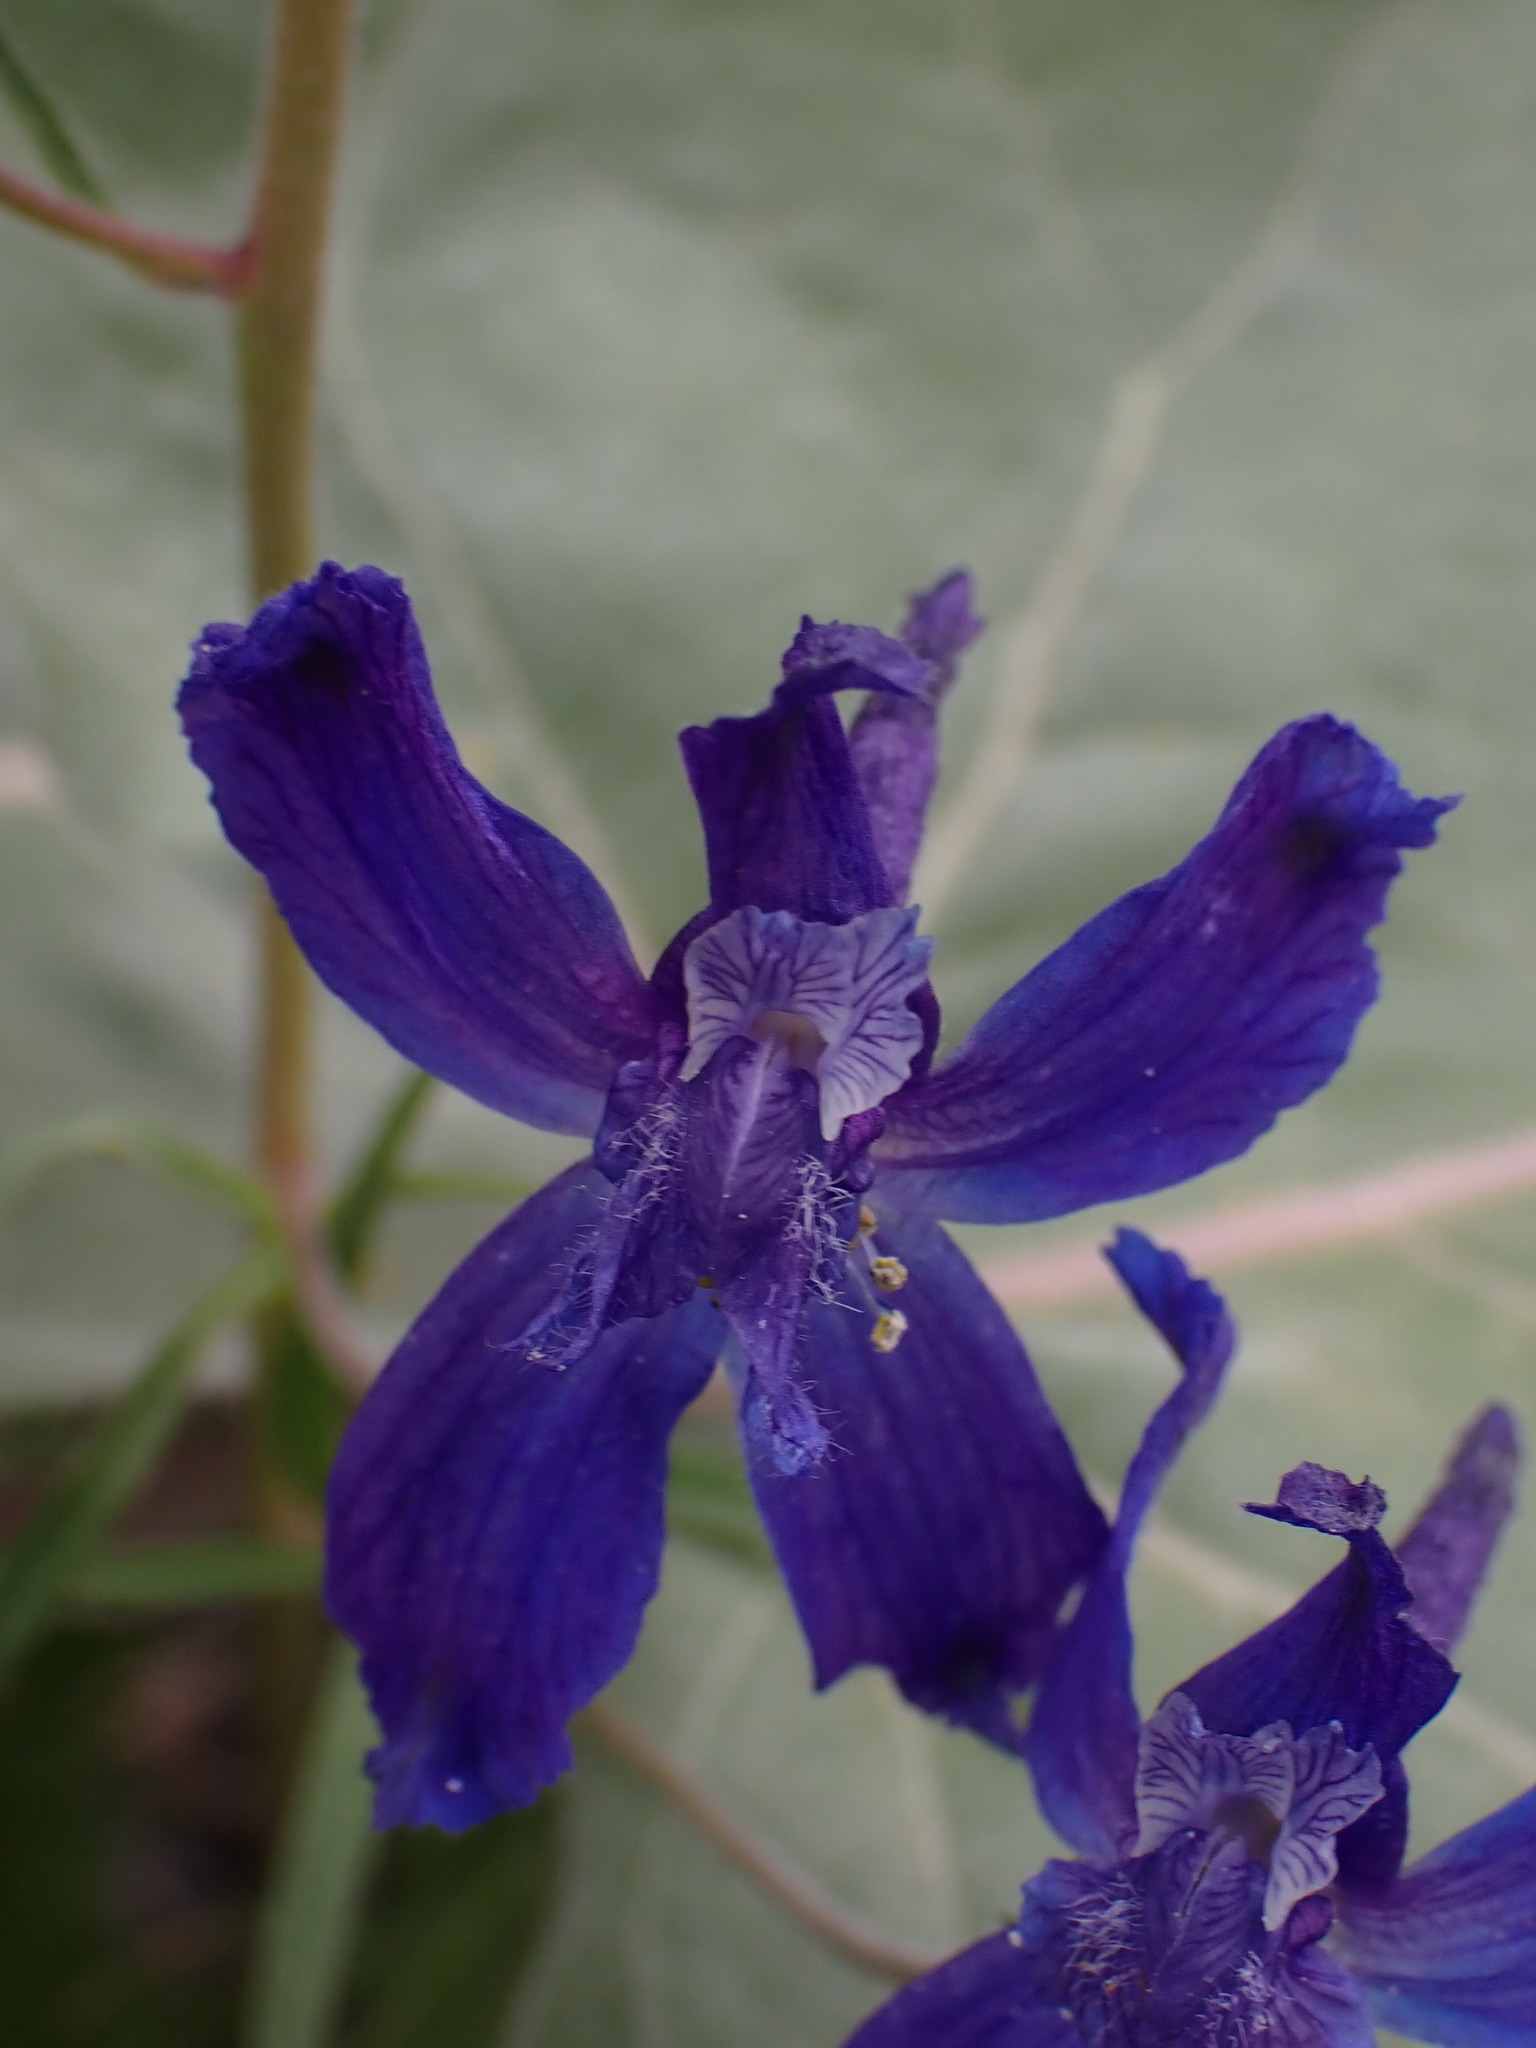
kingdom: Plantae
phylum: Tracheophyta
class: Magnoliopsida
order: Ranunculales
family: Ranunculaceae
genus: Delphinium
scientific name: Delphinium nuttallianum
